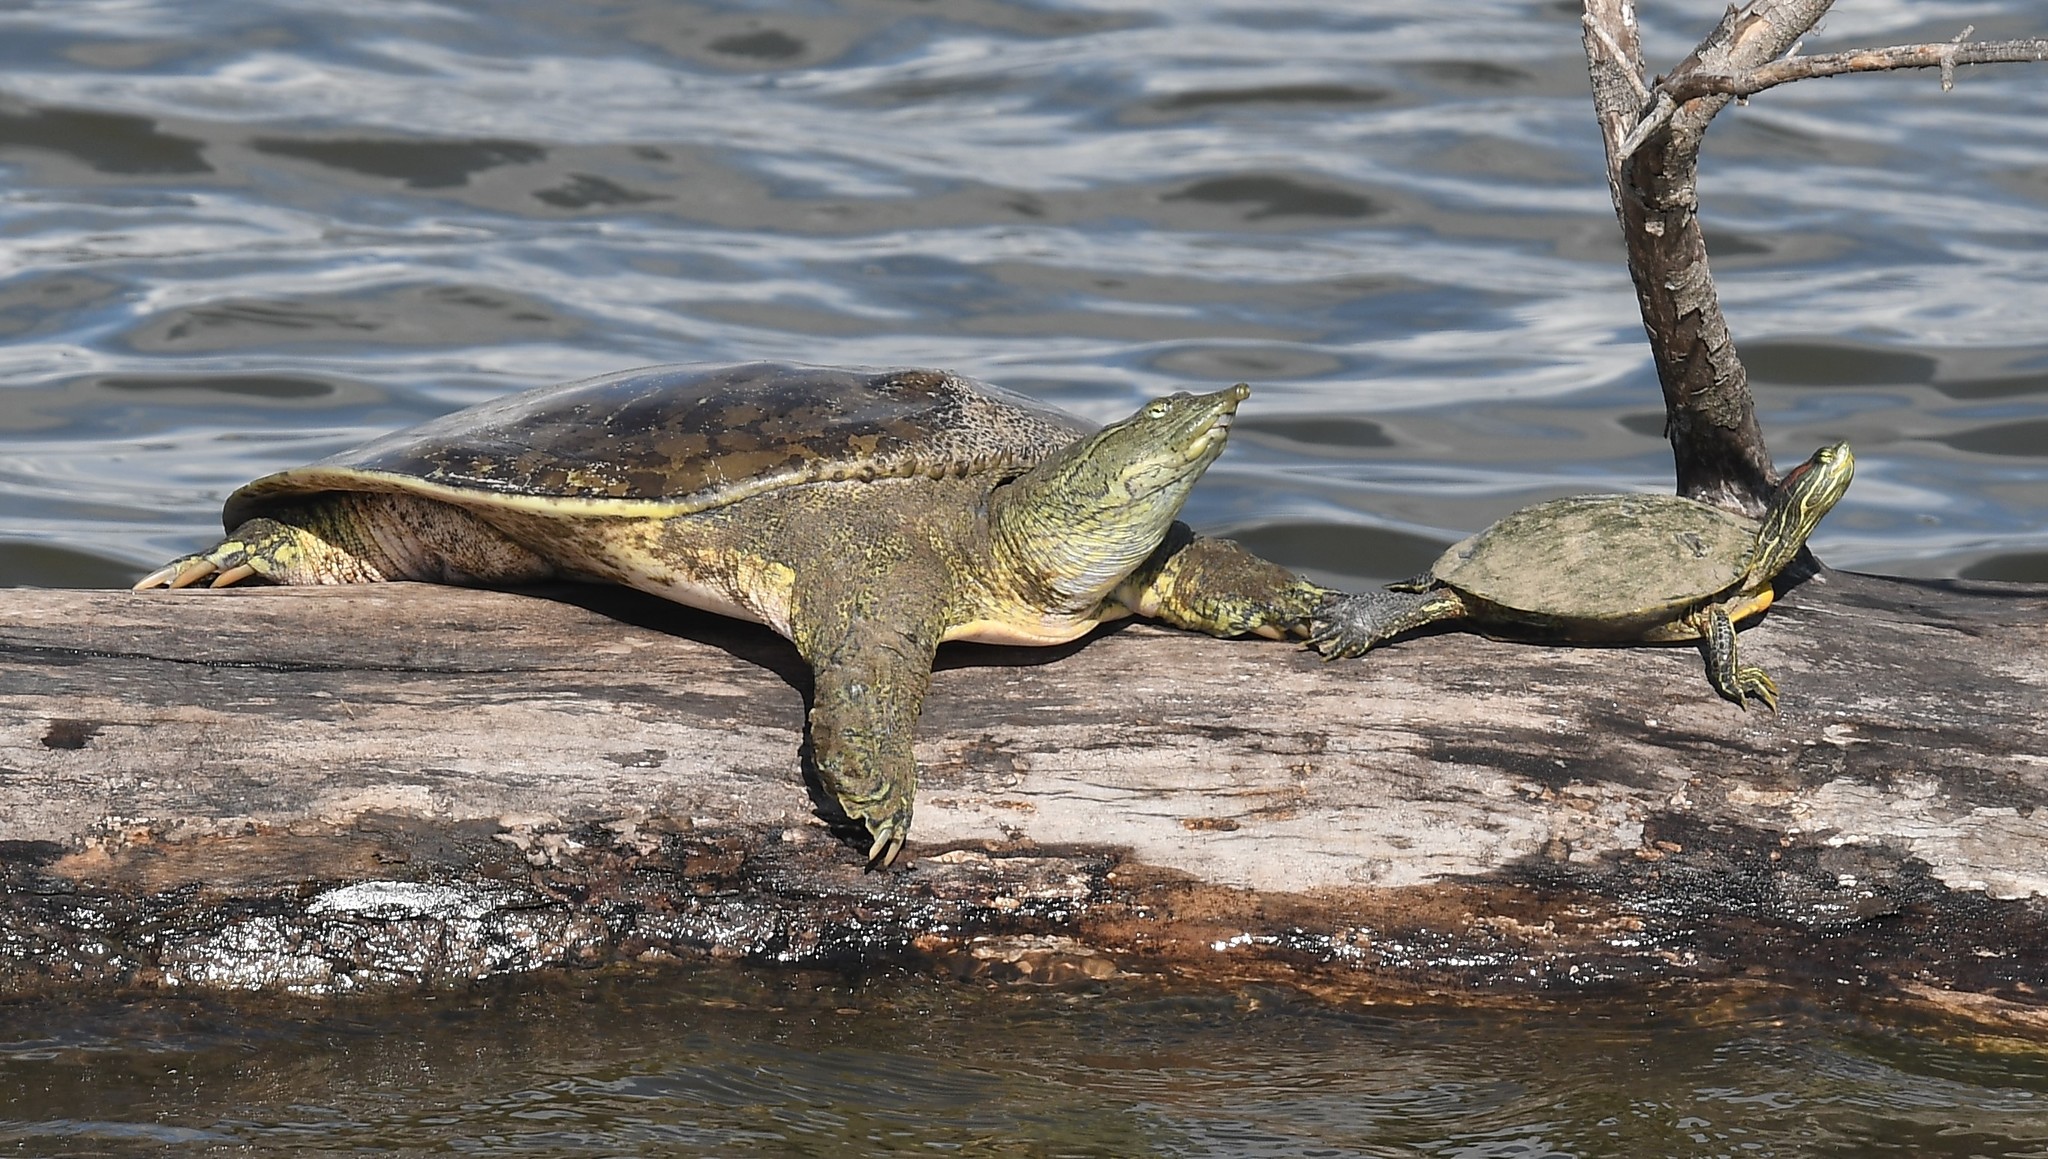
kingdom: Animalia
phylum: Chordata
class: Testudines
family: Trionychidae
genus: Apalone
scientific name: Apalone spinifera
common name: Spiny softshell turtle
